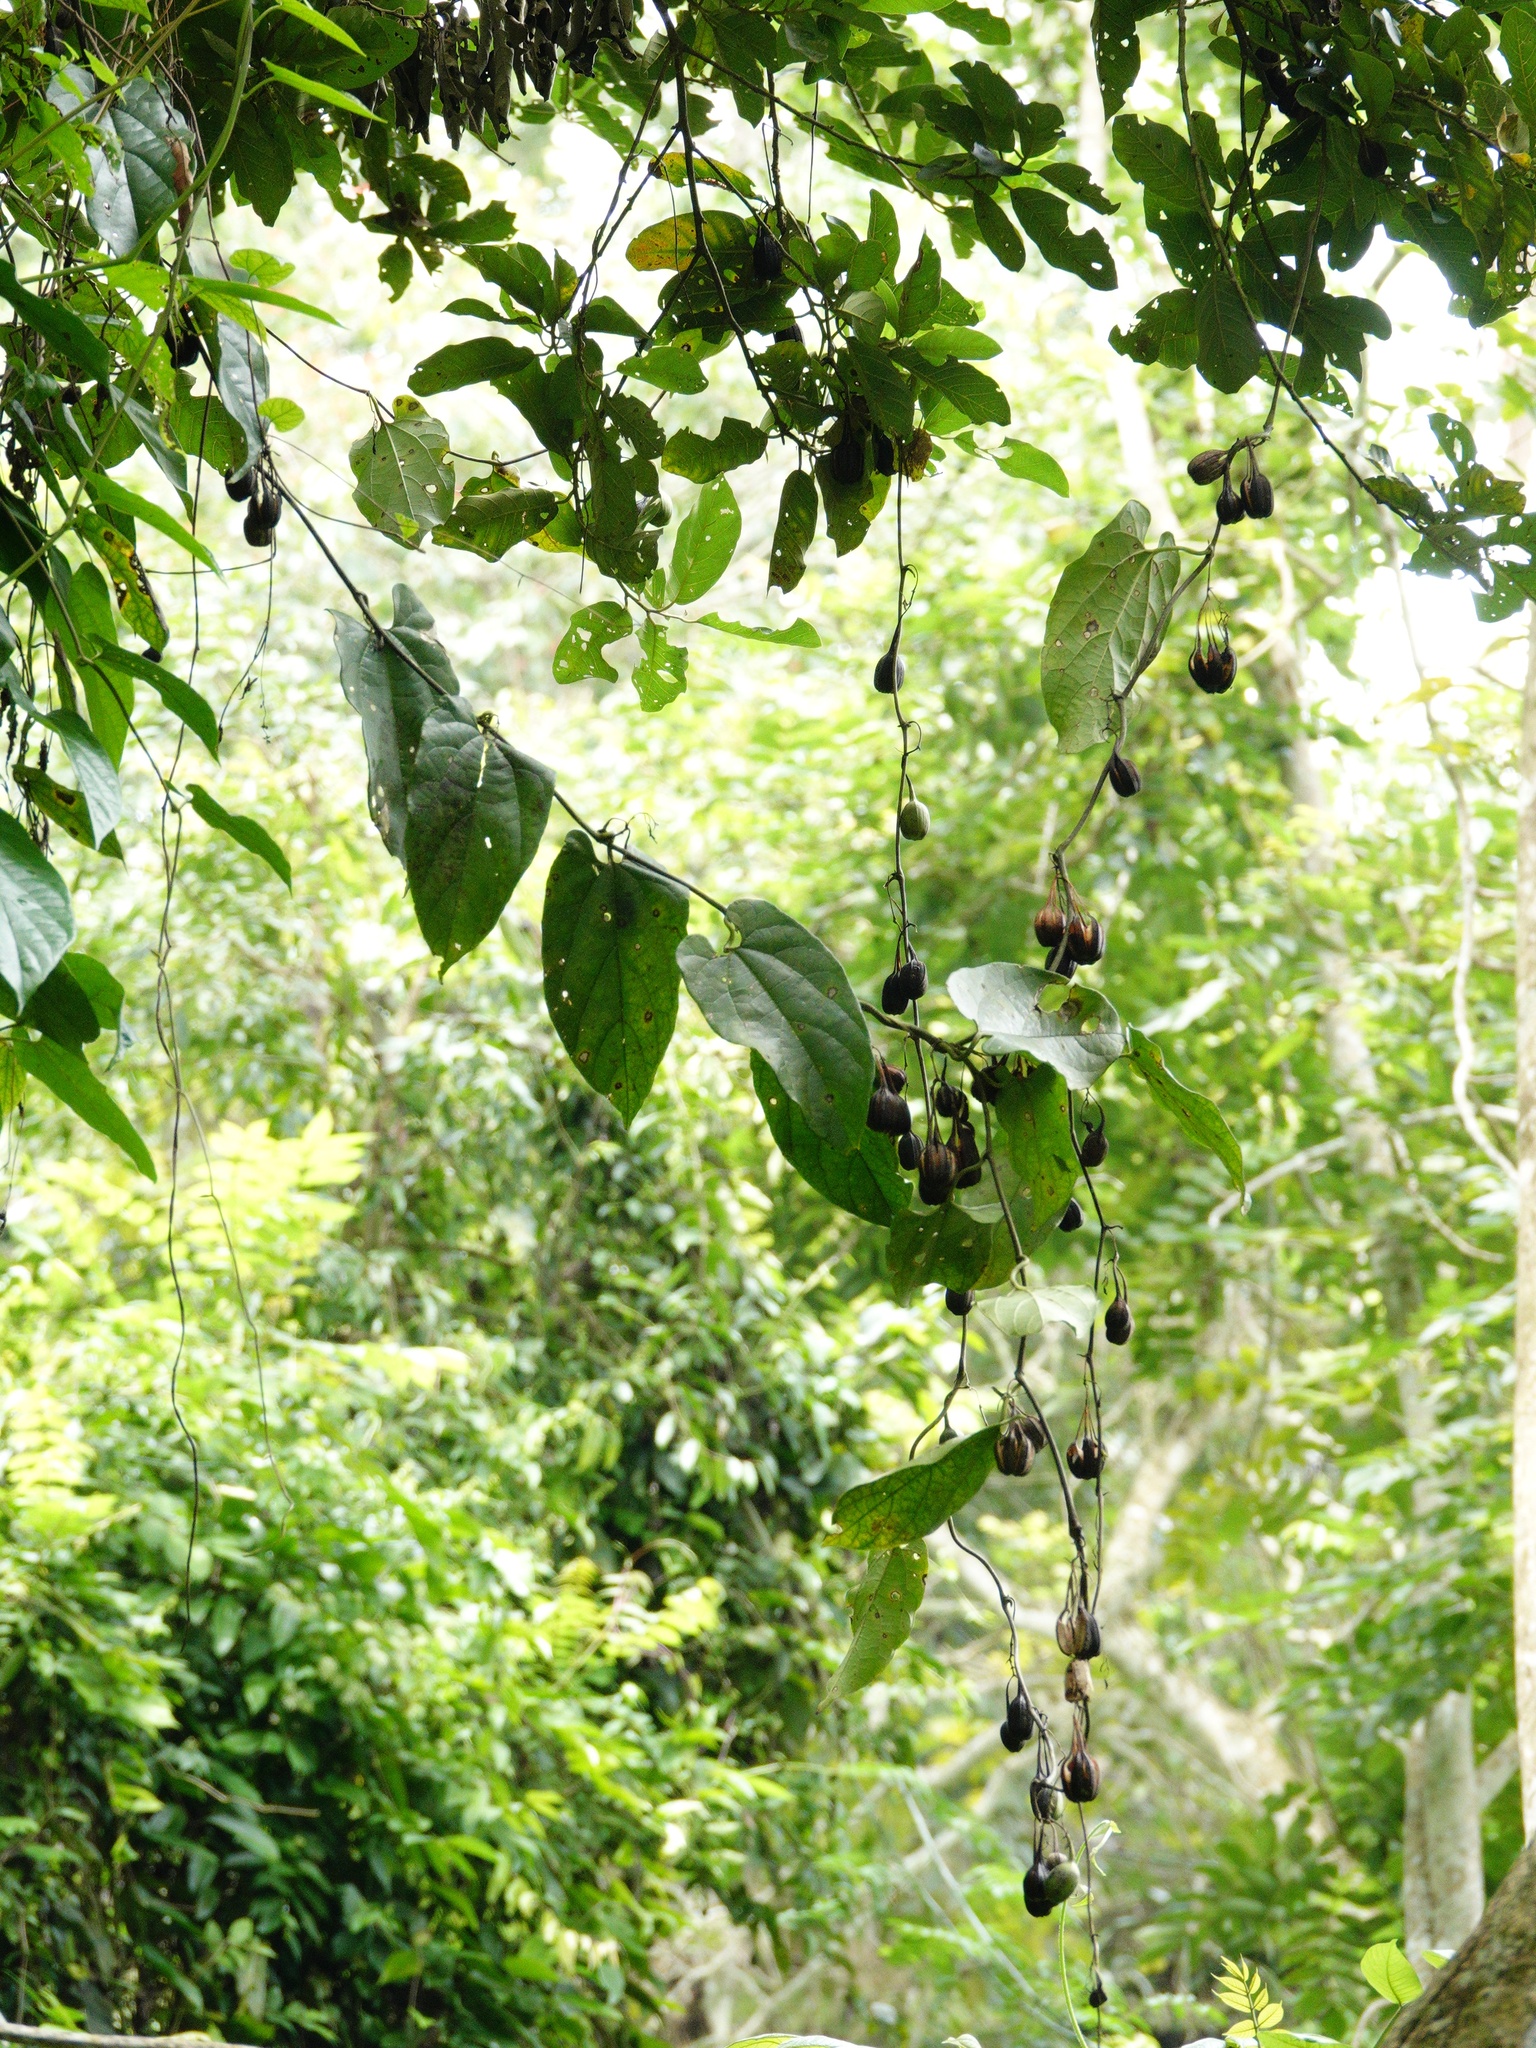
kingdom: Plantae
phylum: Tracheophyta
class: Magnoliopsida
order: Piperales
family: Aristolochiaceae
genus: Aristolochia
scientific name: Aristolochia acuminata
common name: Indian birthwort
